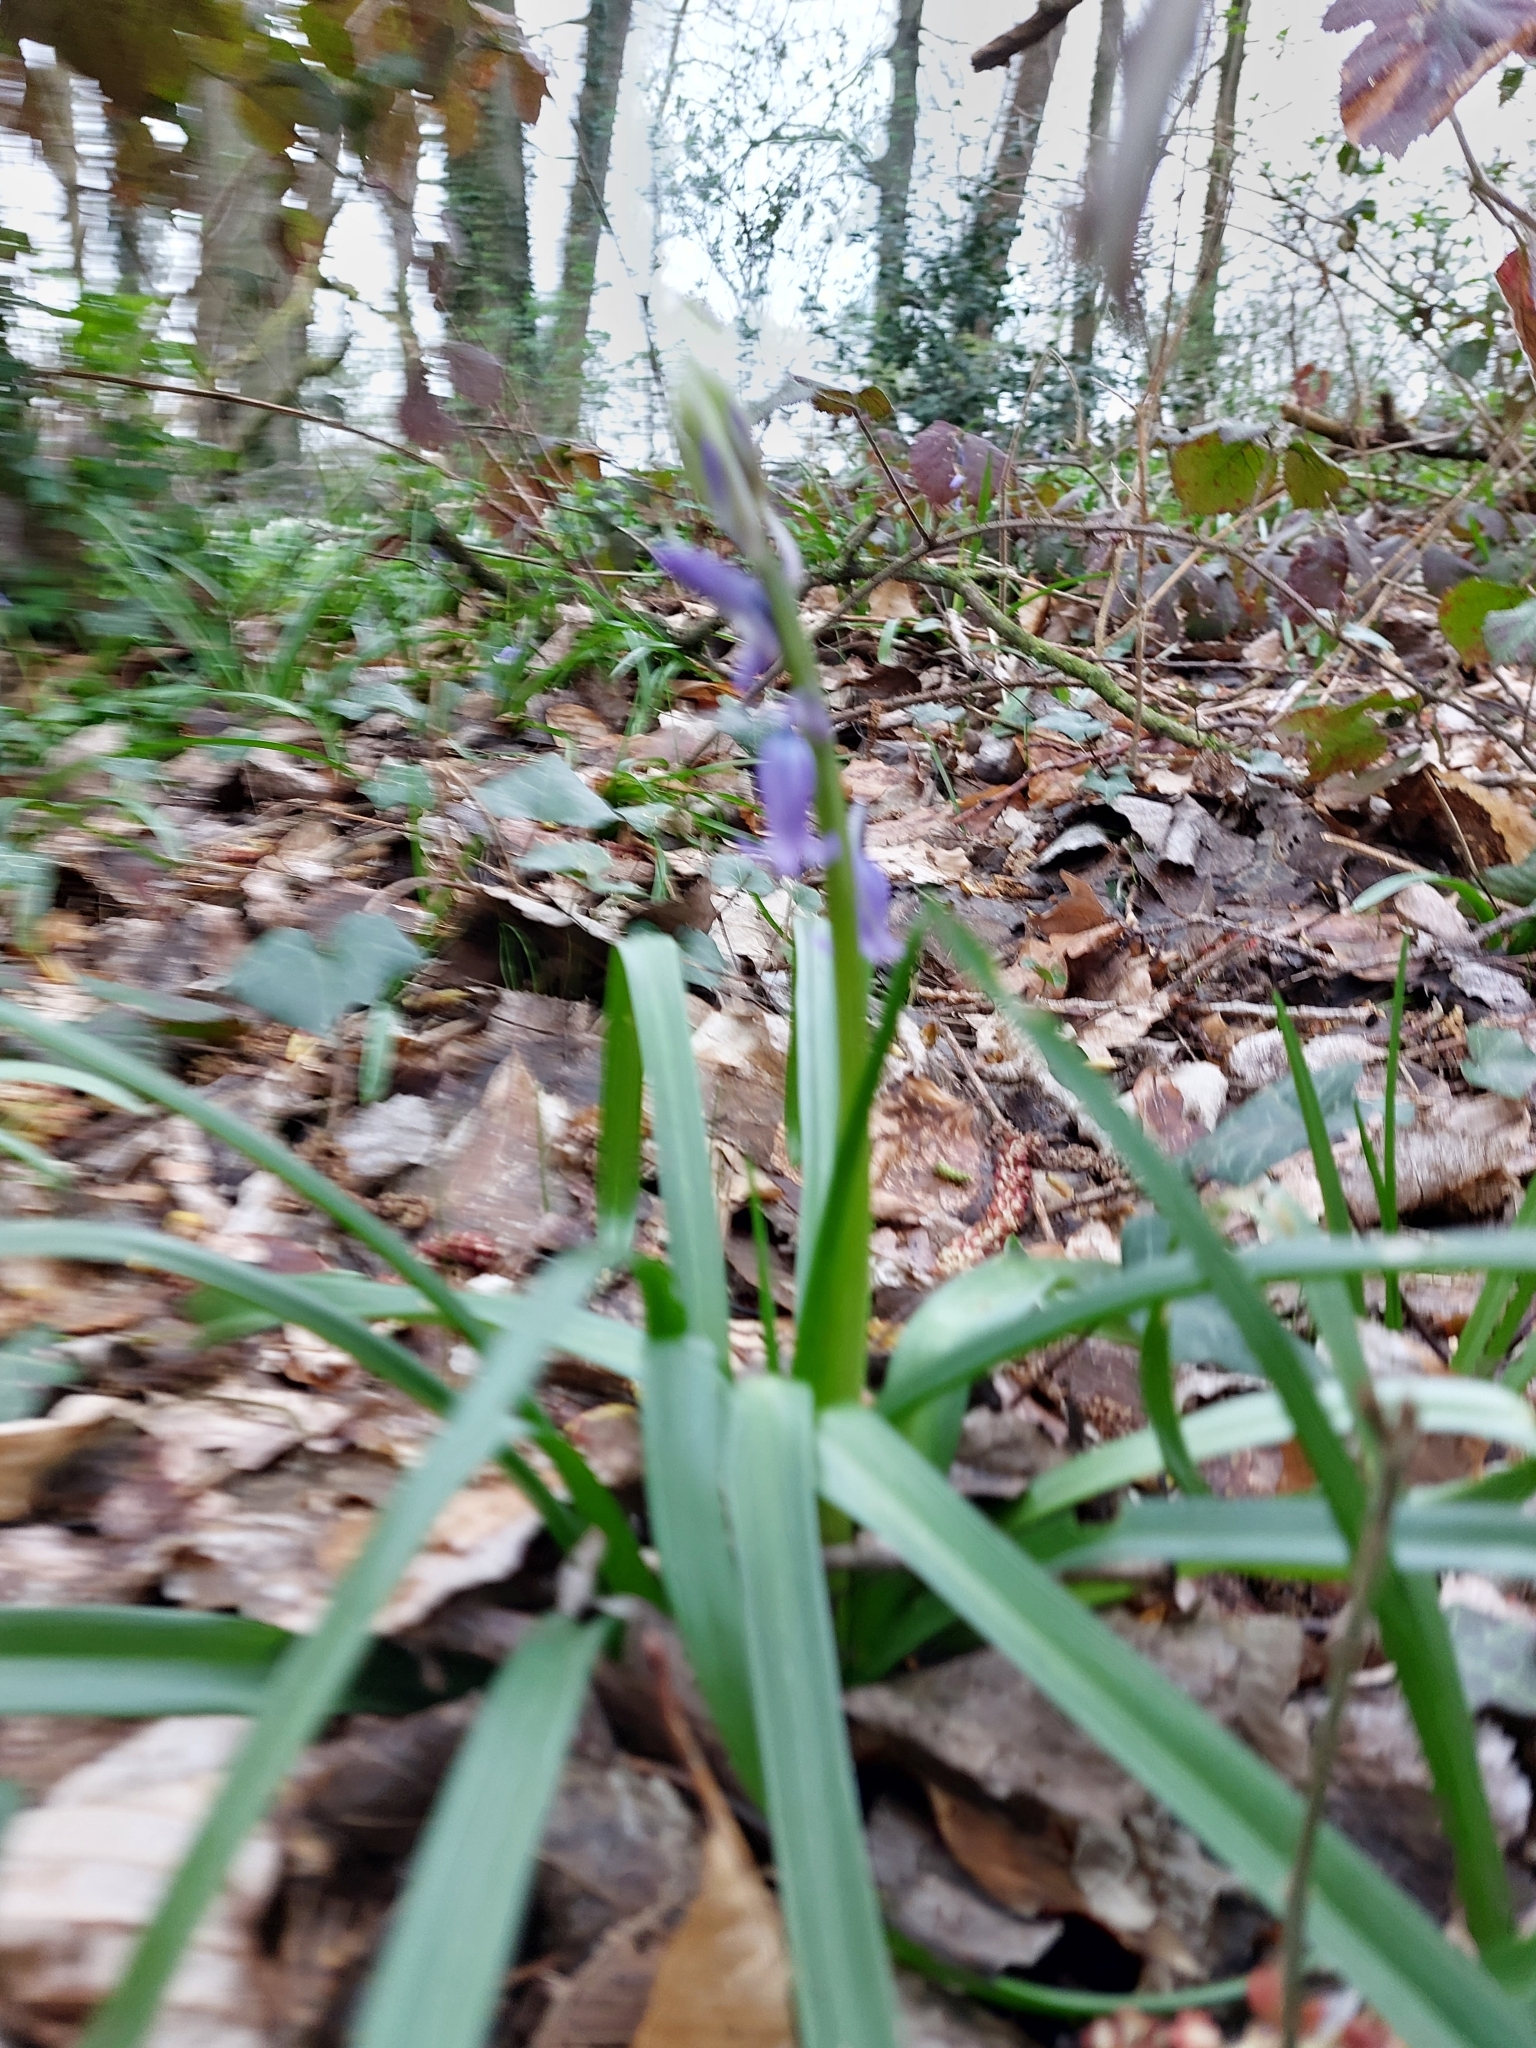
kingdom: Plantae
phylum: Tracheophyta
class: Liliopsida
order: Asparagales
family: Asparagaceae
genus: Hyacinthoides
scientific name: Hyacinthoides non-scripta
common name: Bluebell
